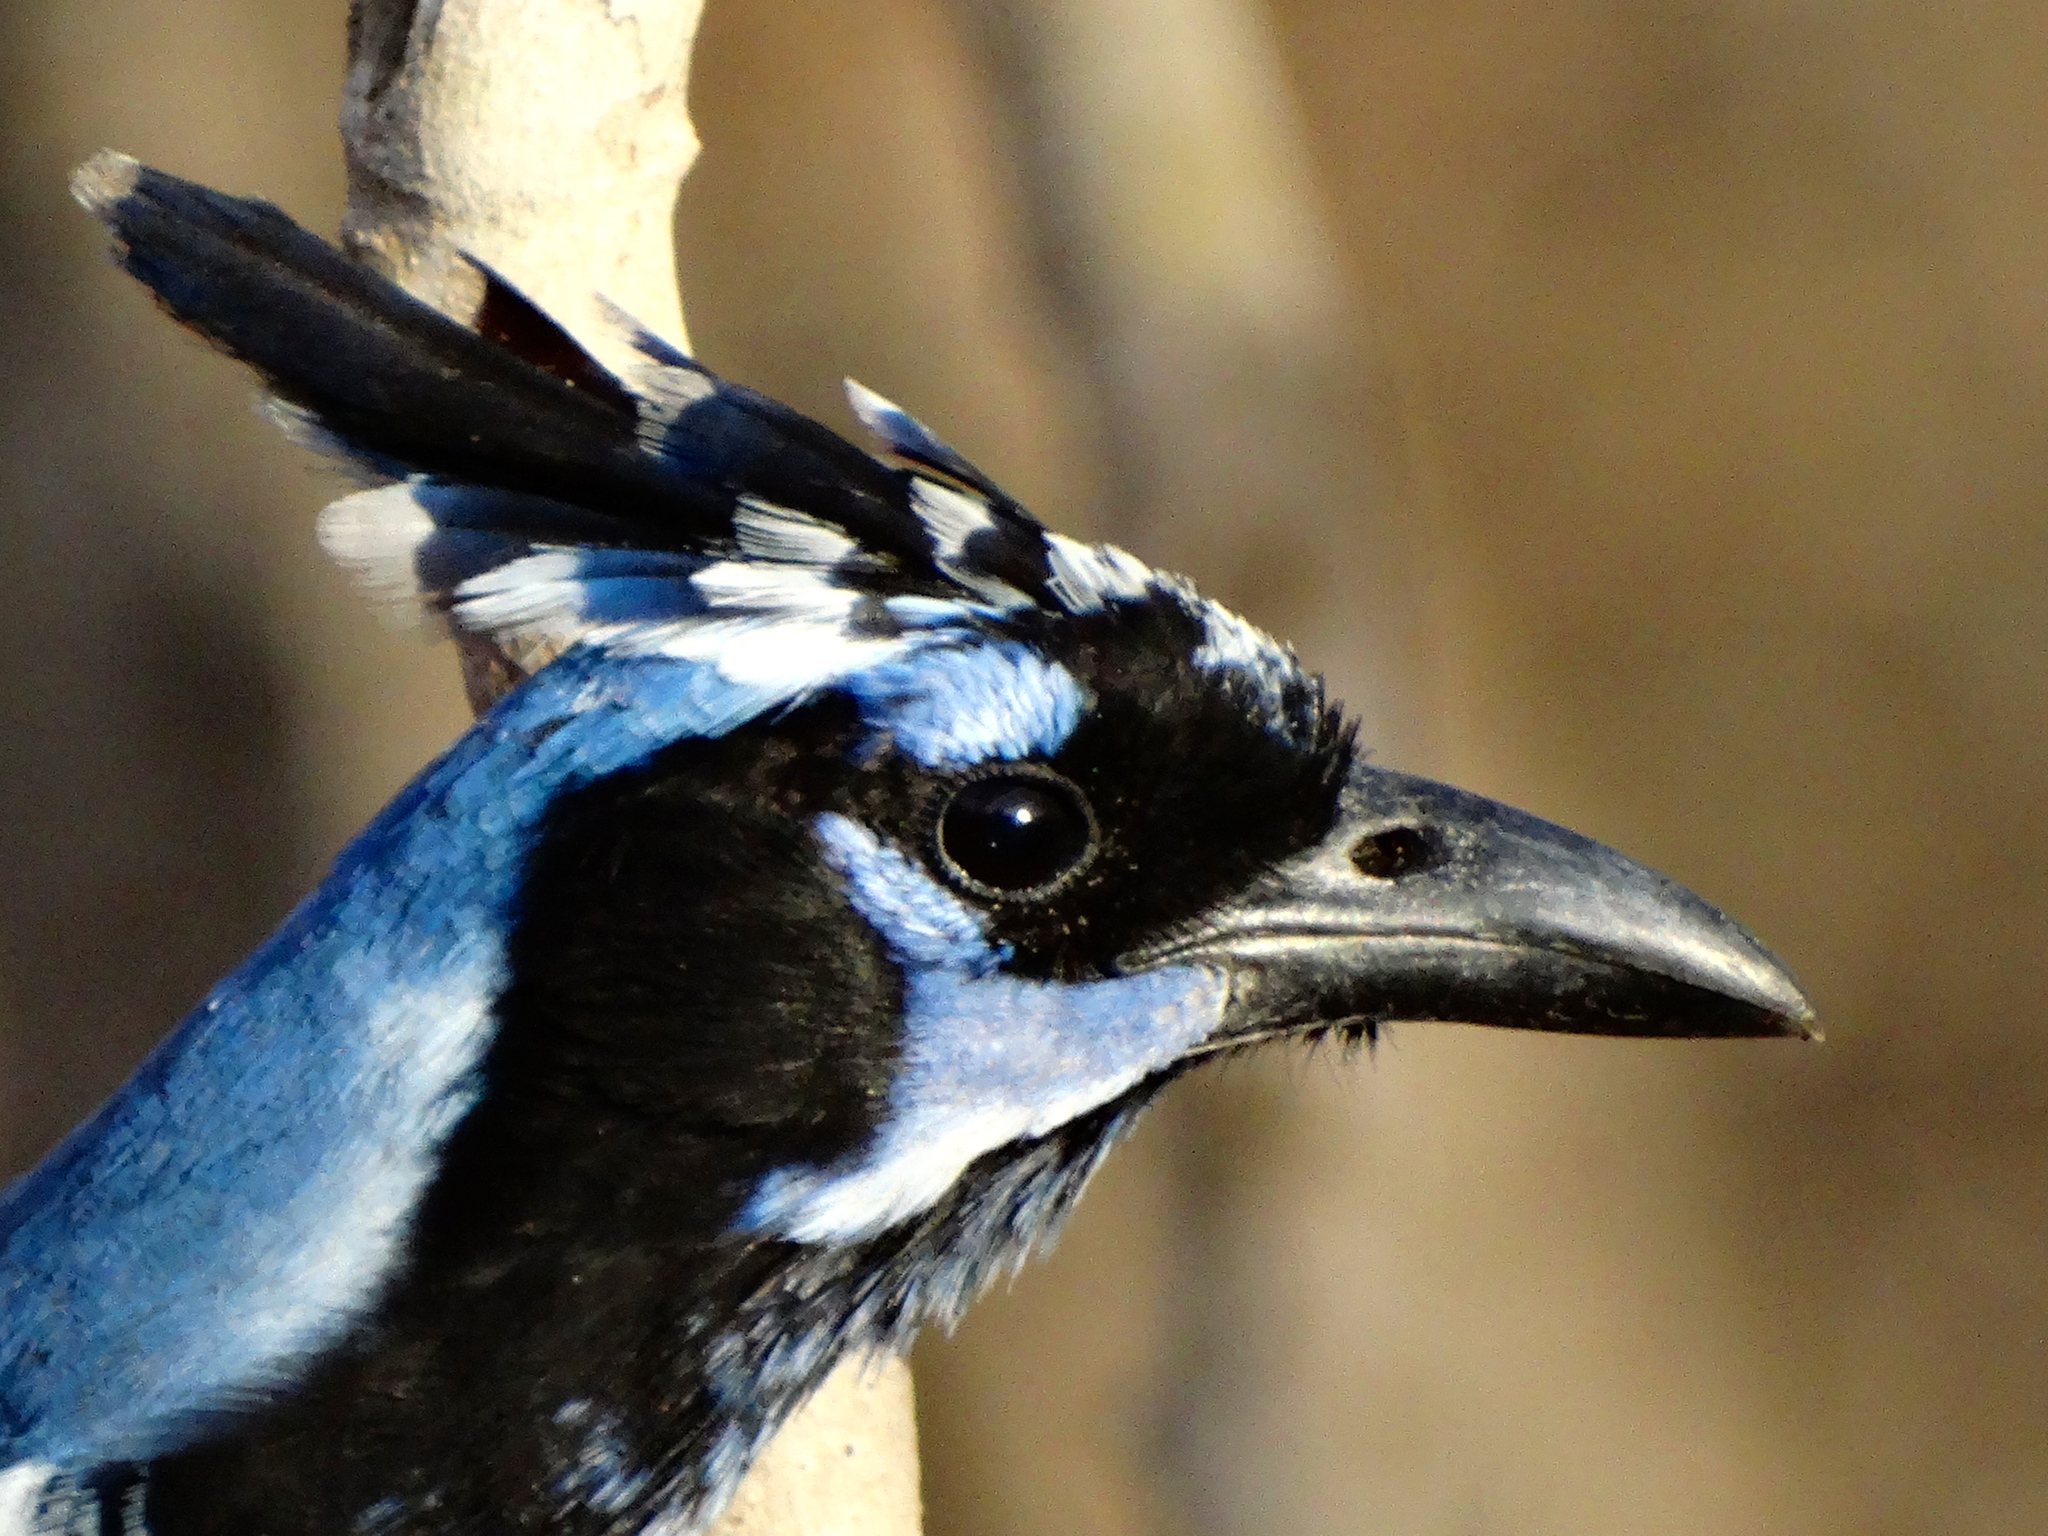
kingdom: Animalia
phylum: Chordata
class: Aves
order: Passeriformes
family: Corvidae
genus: Calocitta
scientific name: Calocitta colliei
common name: Black-throated magpie-jay
